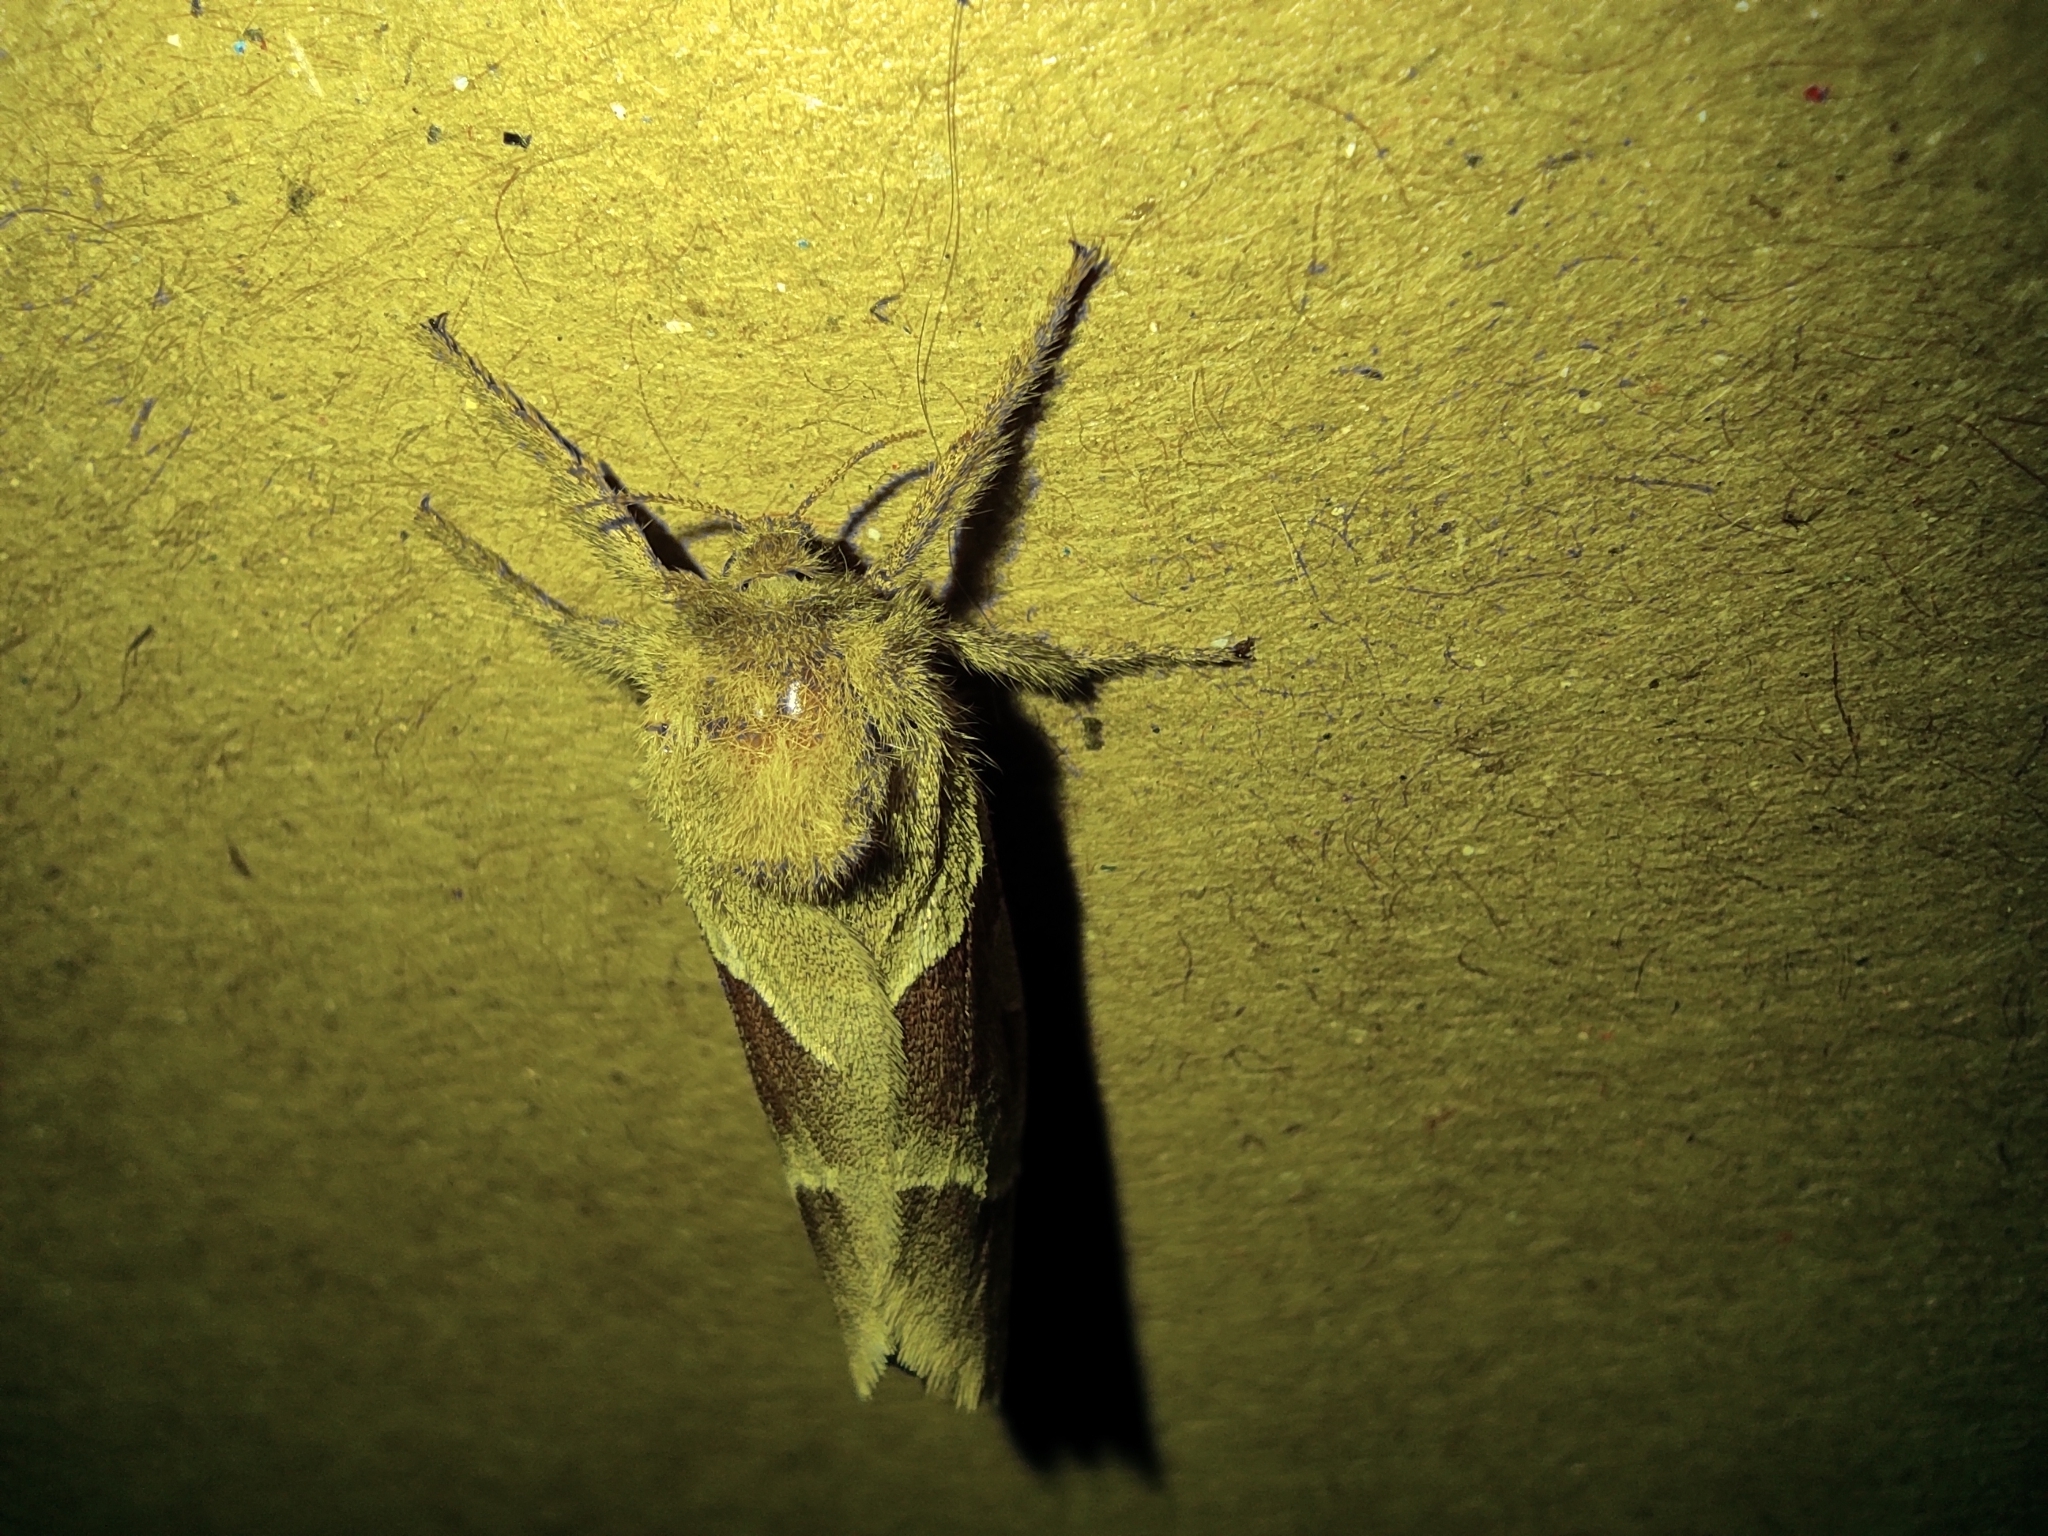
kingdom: Animalia
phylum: Arthropoda
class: Insecta
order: Lepidoptera
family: Hepialidae
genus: Triodia
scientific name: Triodia sylvina
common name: Orange swift
